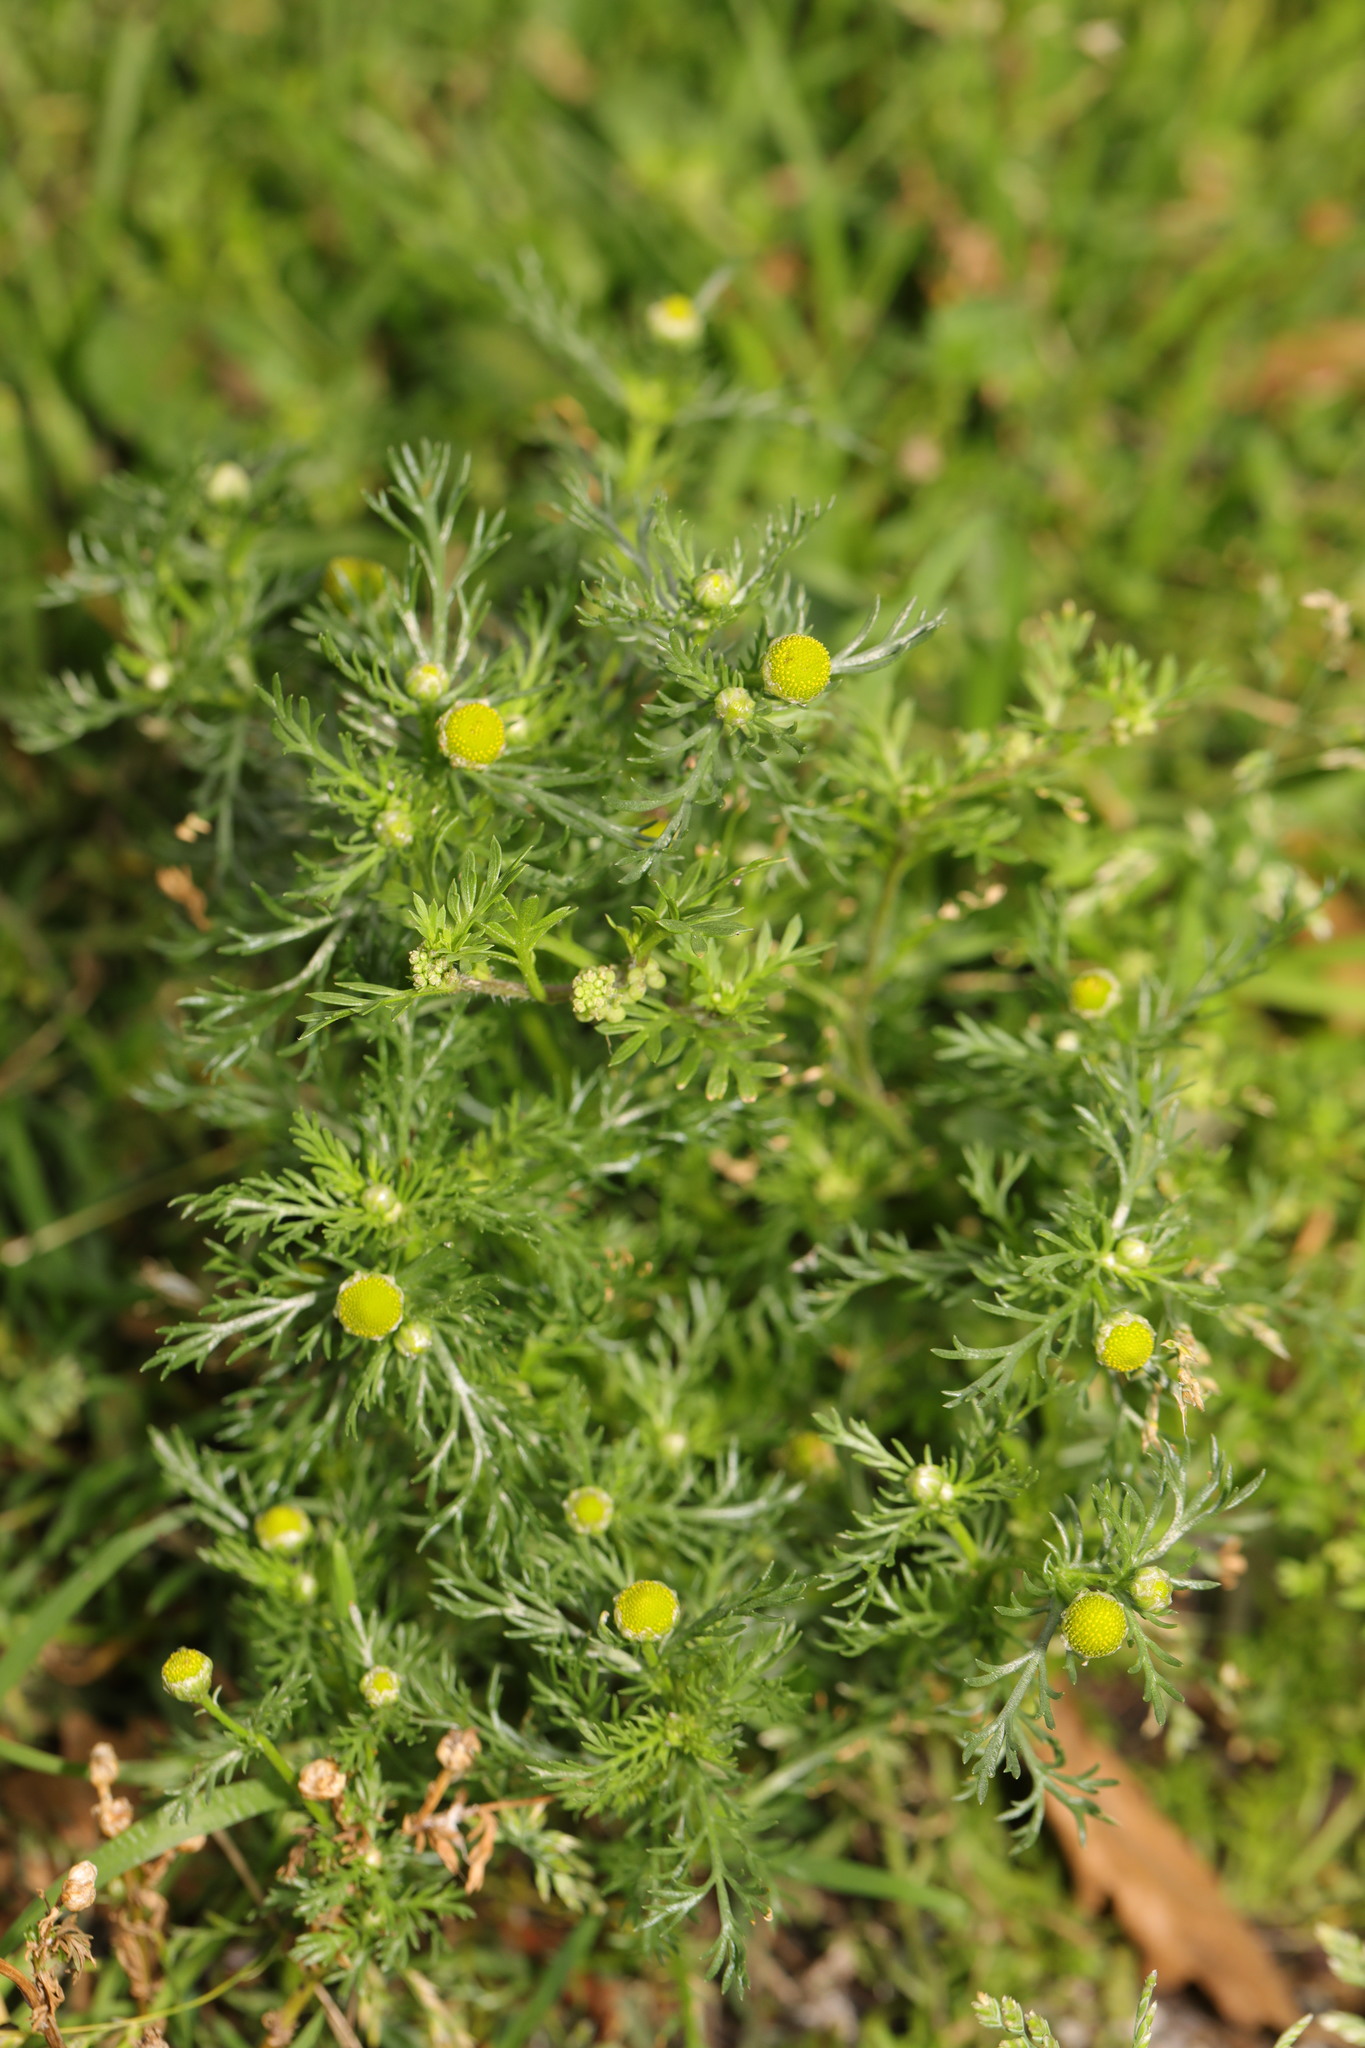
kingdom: Plantae
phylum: Tracheophyta
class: Magnoliopsida
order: Asterales
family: Asteraceae
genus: Matricaria
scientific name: Matricaria discoidea
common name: Disc mayweed
